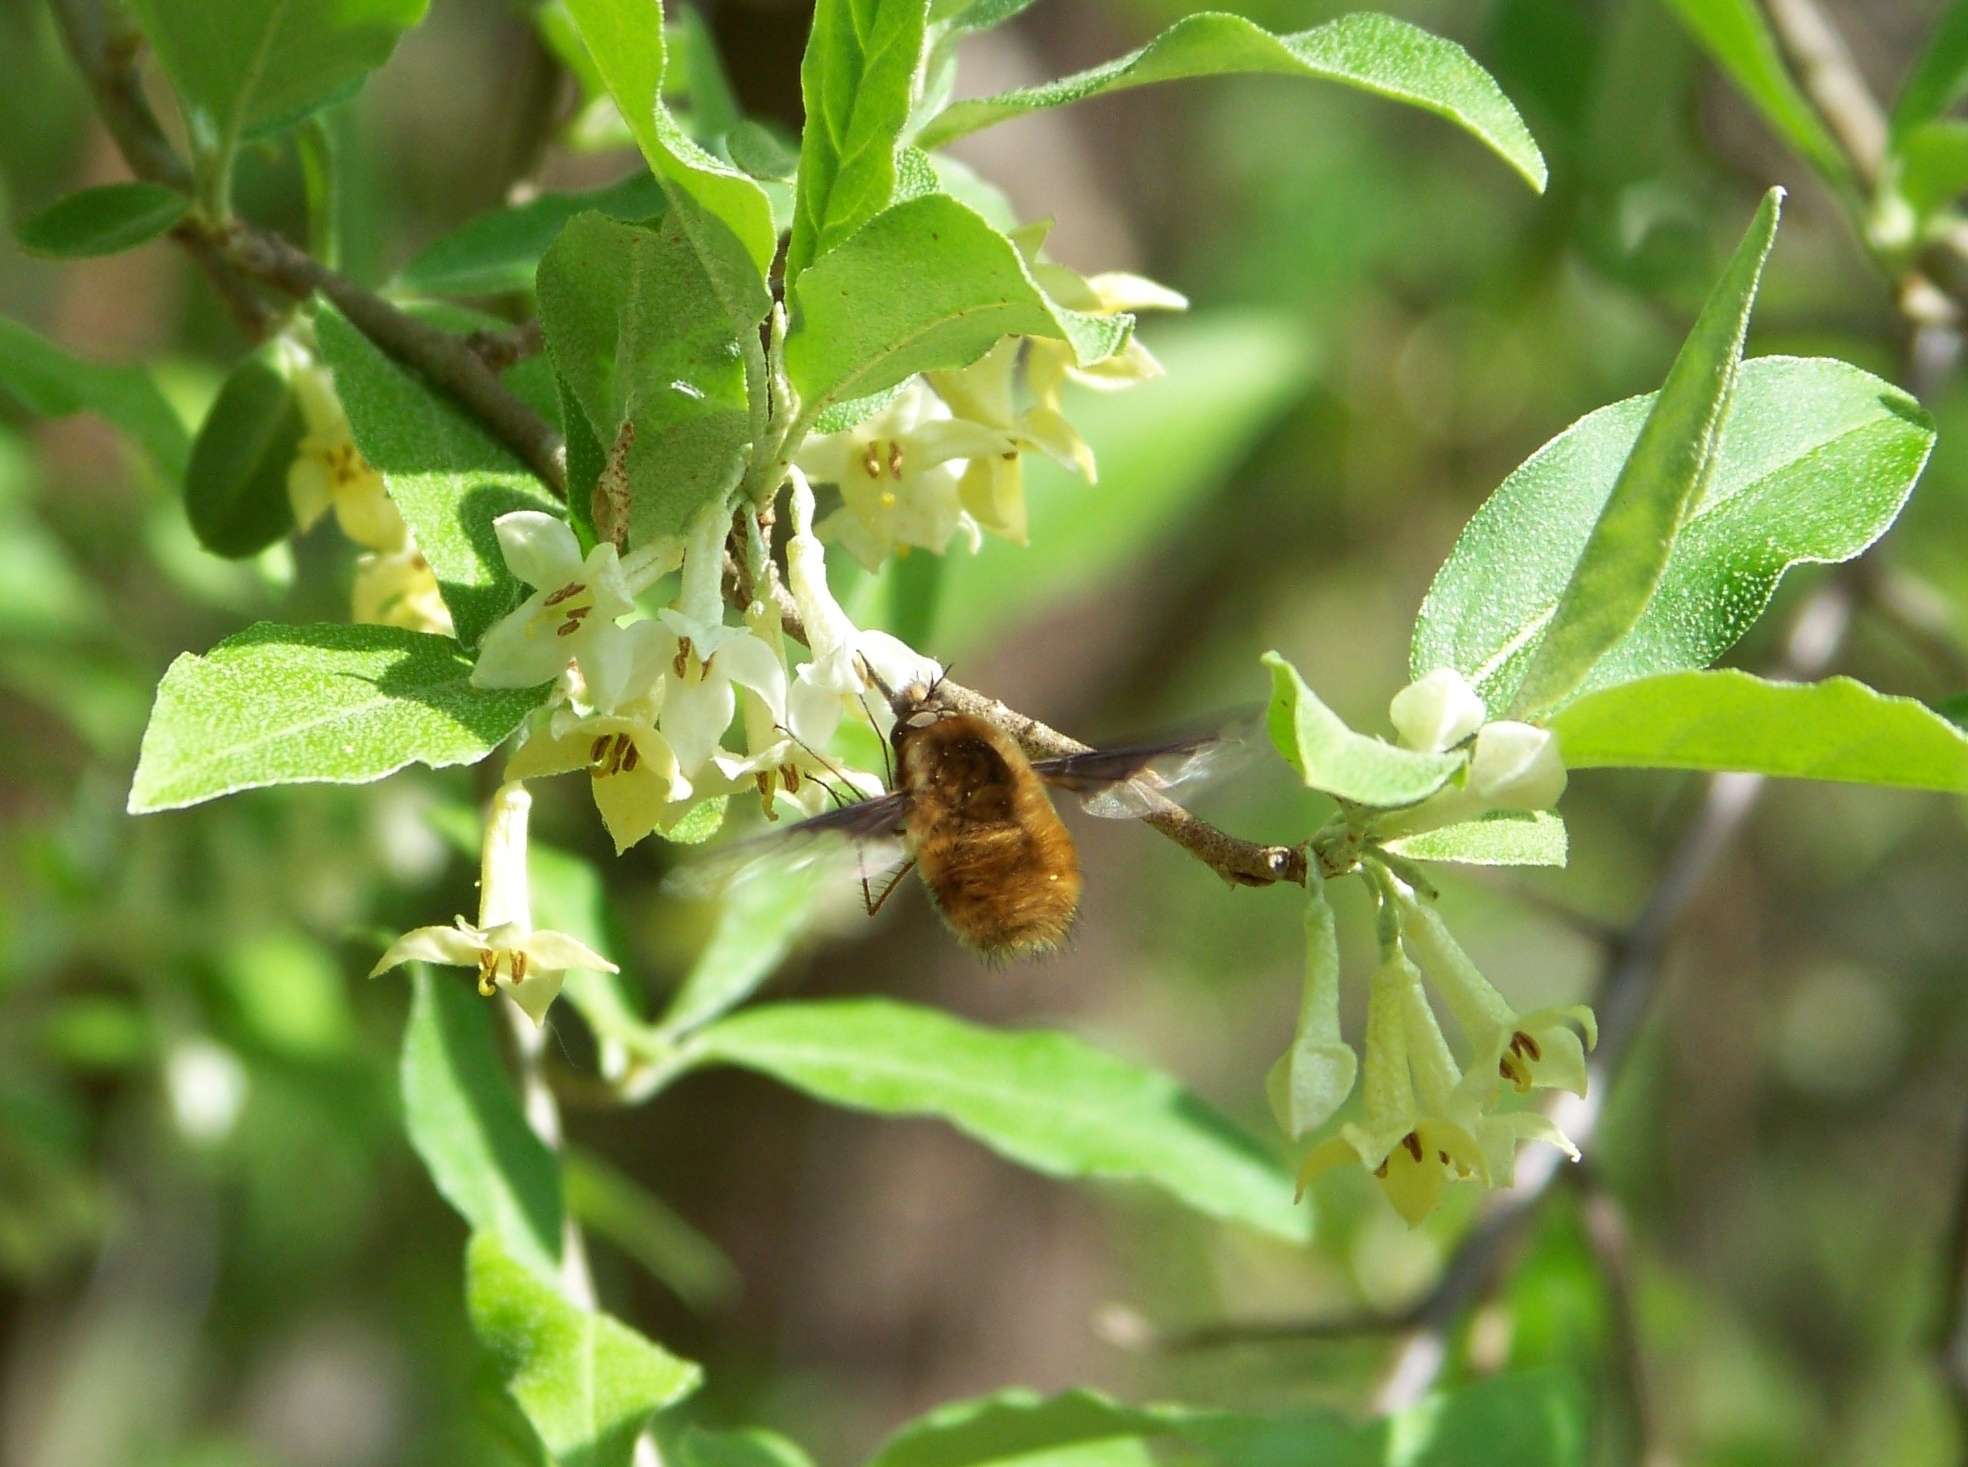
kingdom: Animalia
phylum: Arthropoda
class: Insecta
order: Diptera
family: Bombyliidae
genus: Bombylius
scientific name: Bombylius major
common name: Bee fly
